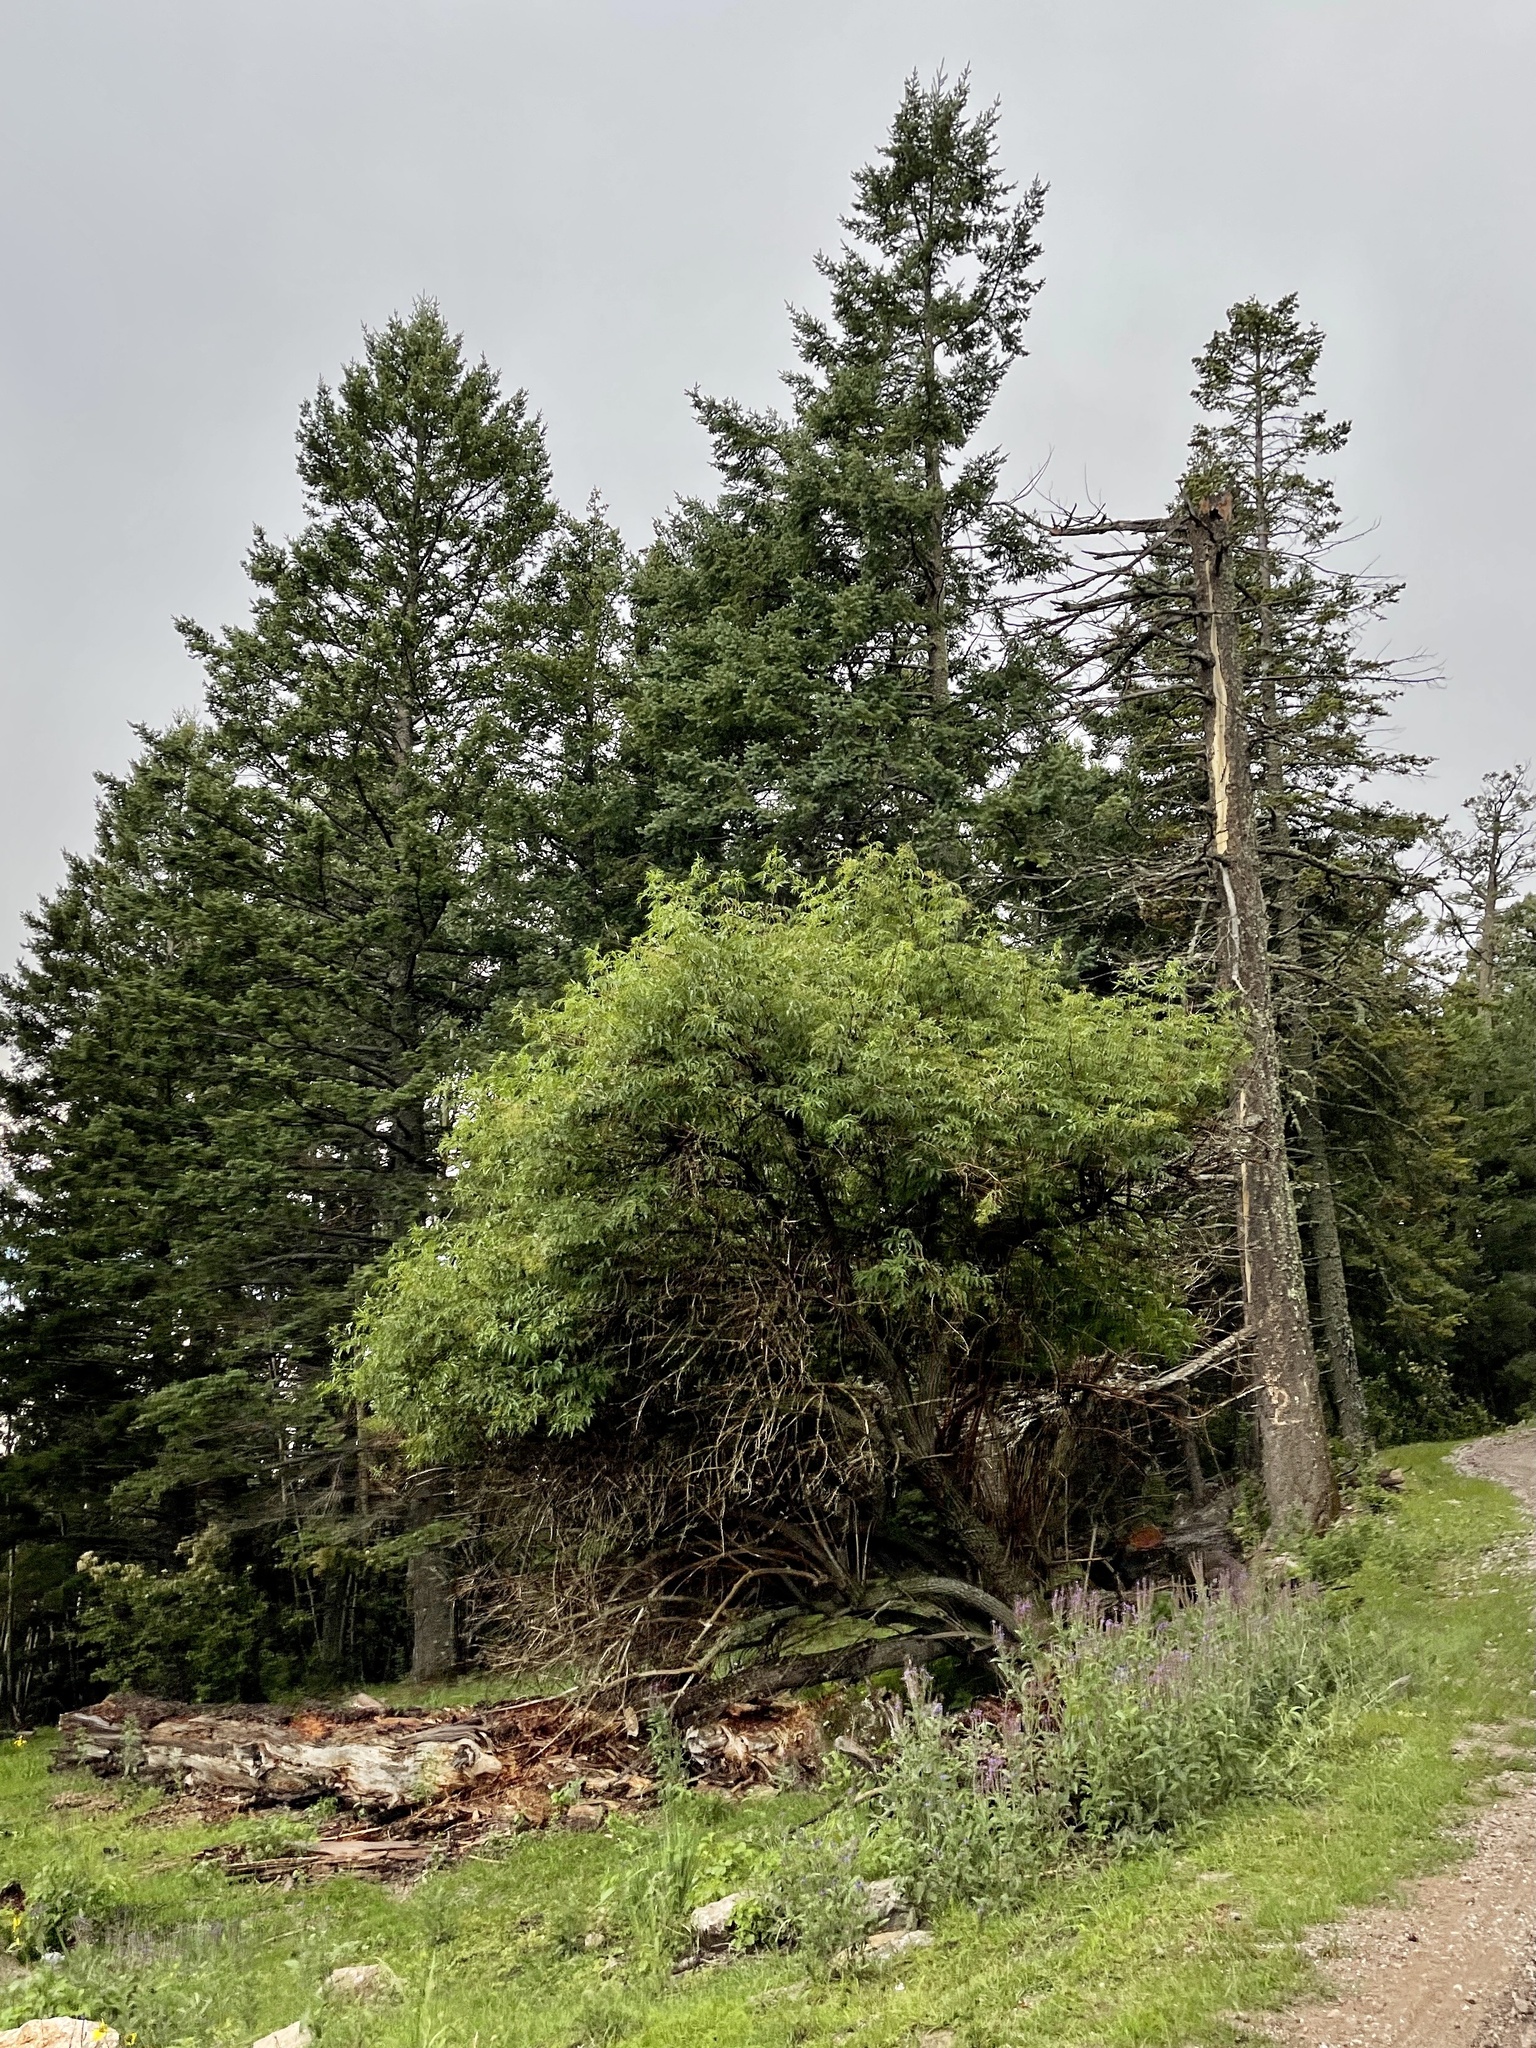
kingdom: Plantae
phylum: Tracheophyta
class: Magnoliopsida
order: Dipsacales
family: Viburnaceae
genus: Sambucus
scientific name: Sambucus cerulea
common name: Blue elder
